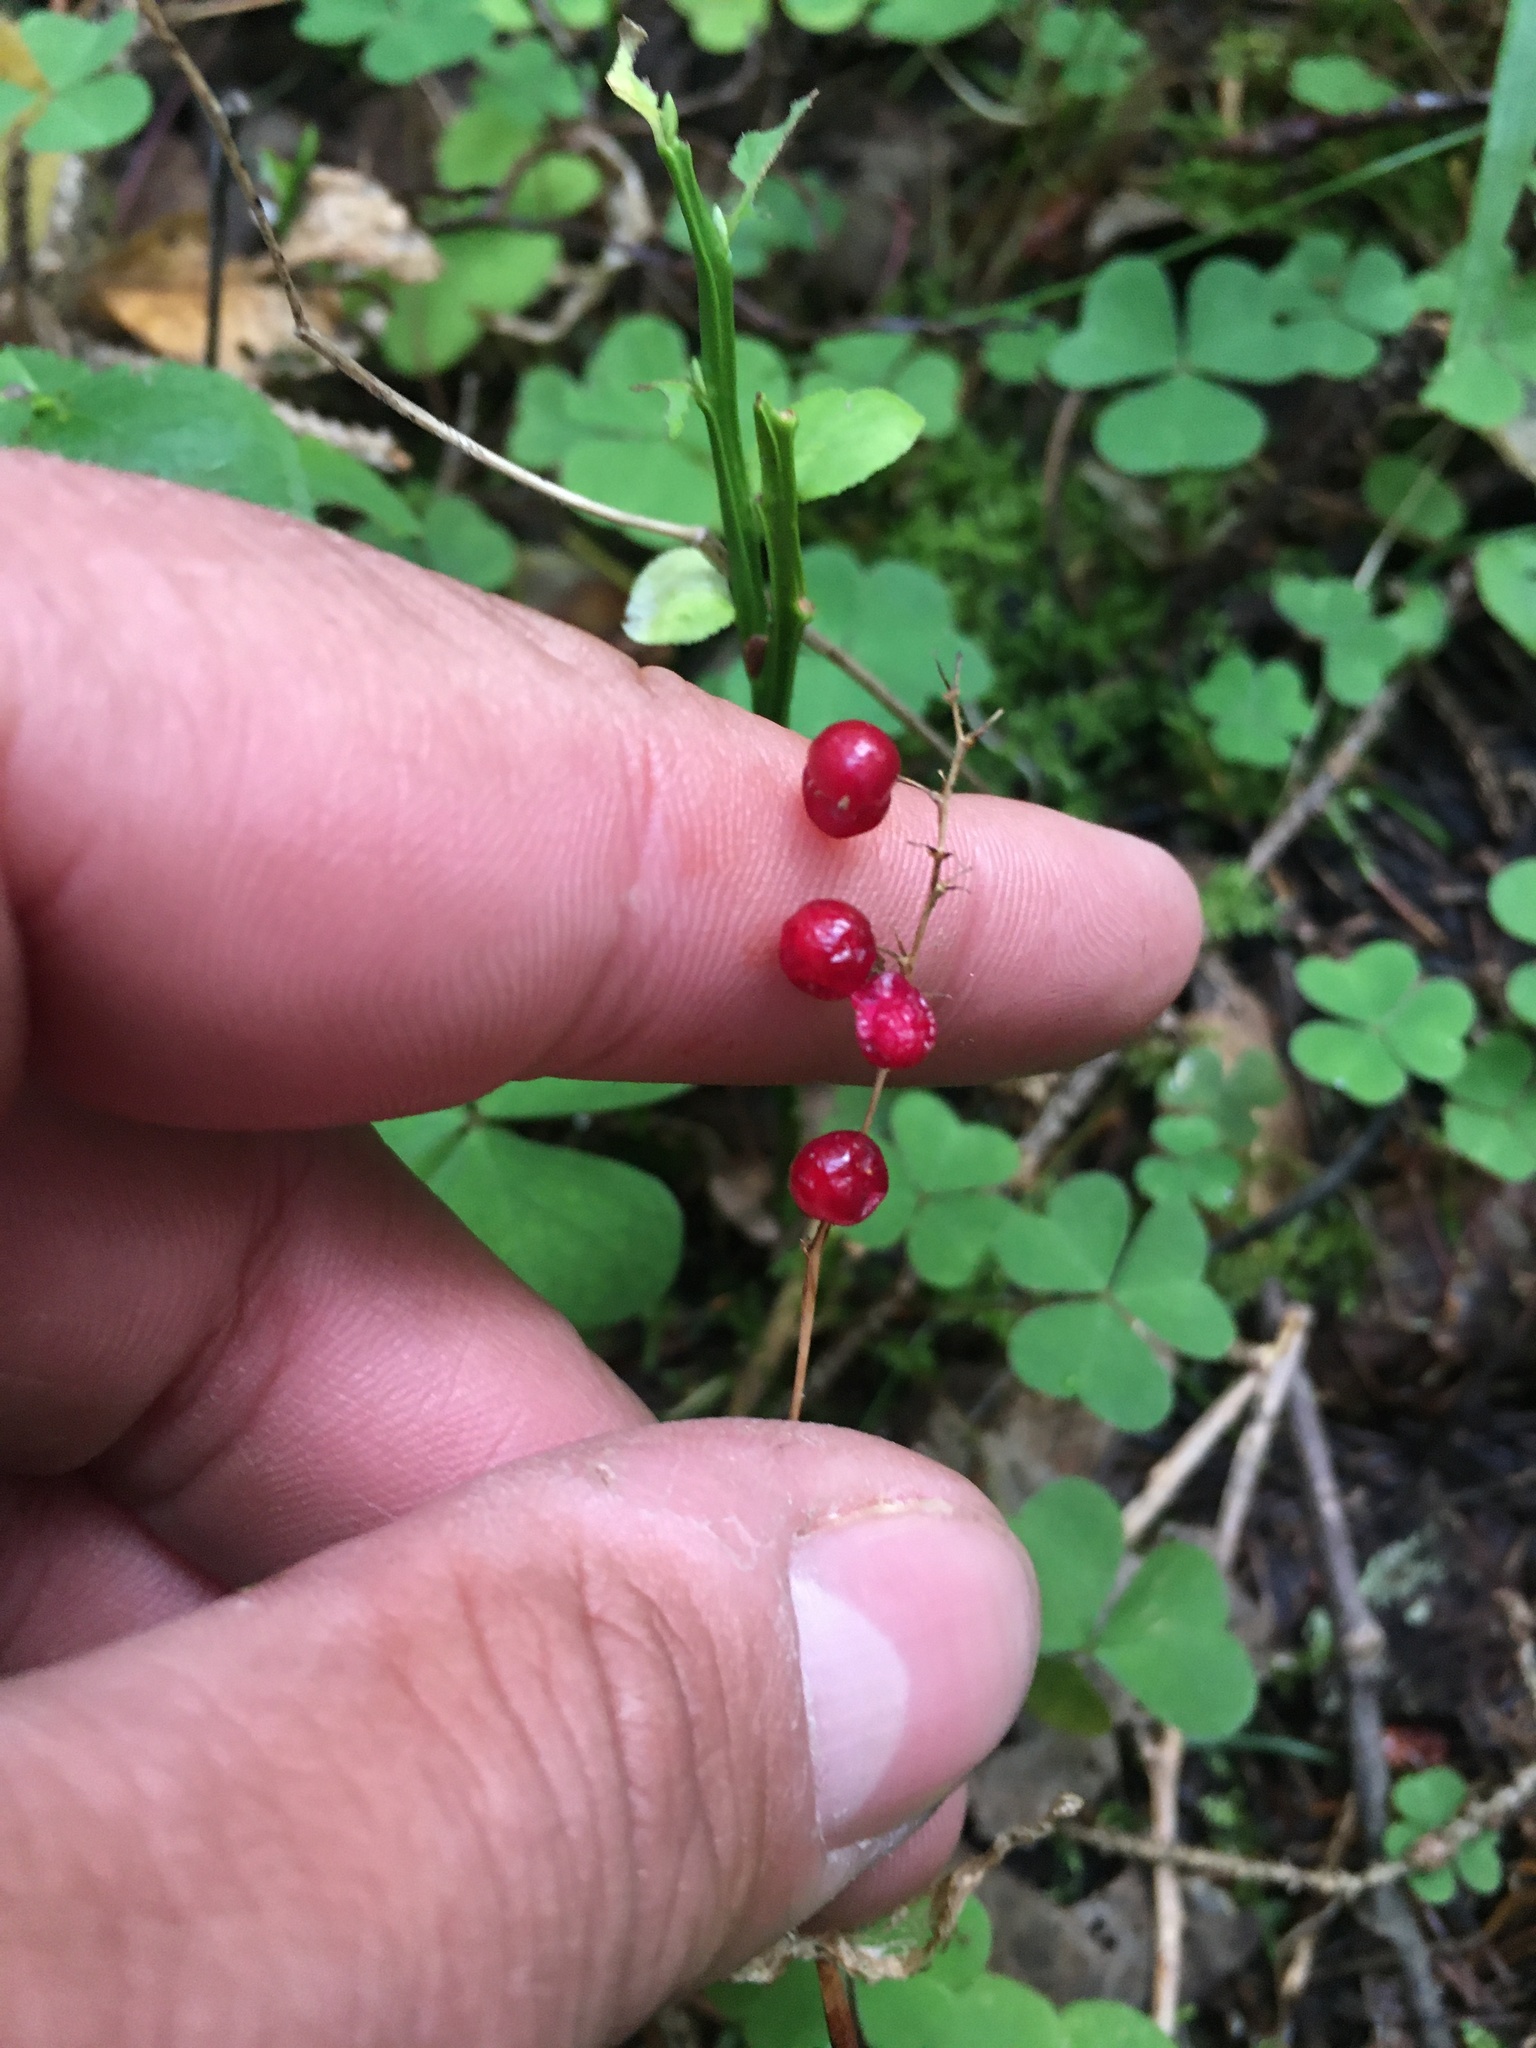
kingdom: Plantae
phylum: Tracheophyta
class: Liliopsida
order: Asparagales
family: Asparagaceae
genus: Maianthemum
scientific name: Maianthemum bifolium
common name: May lily
